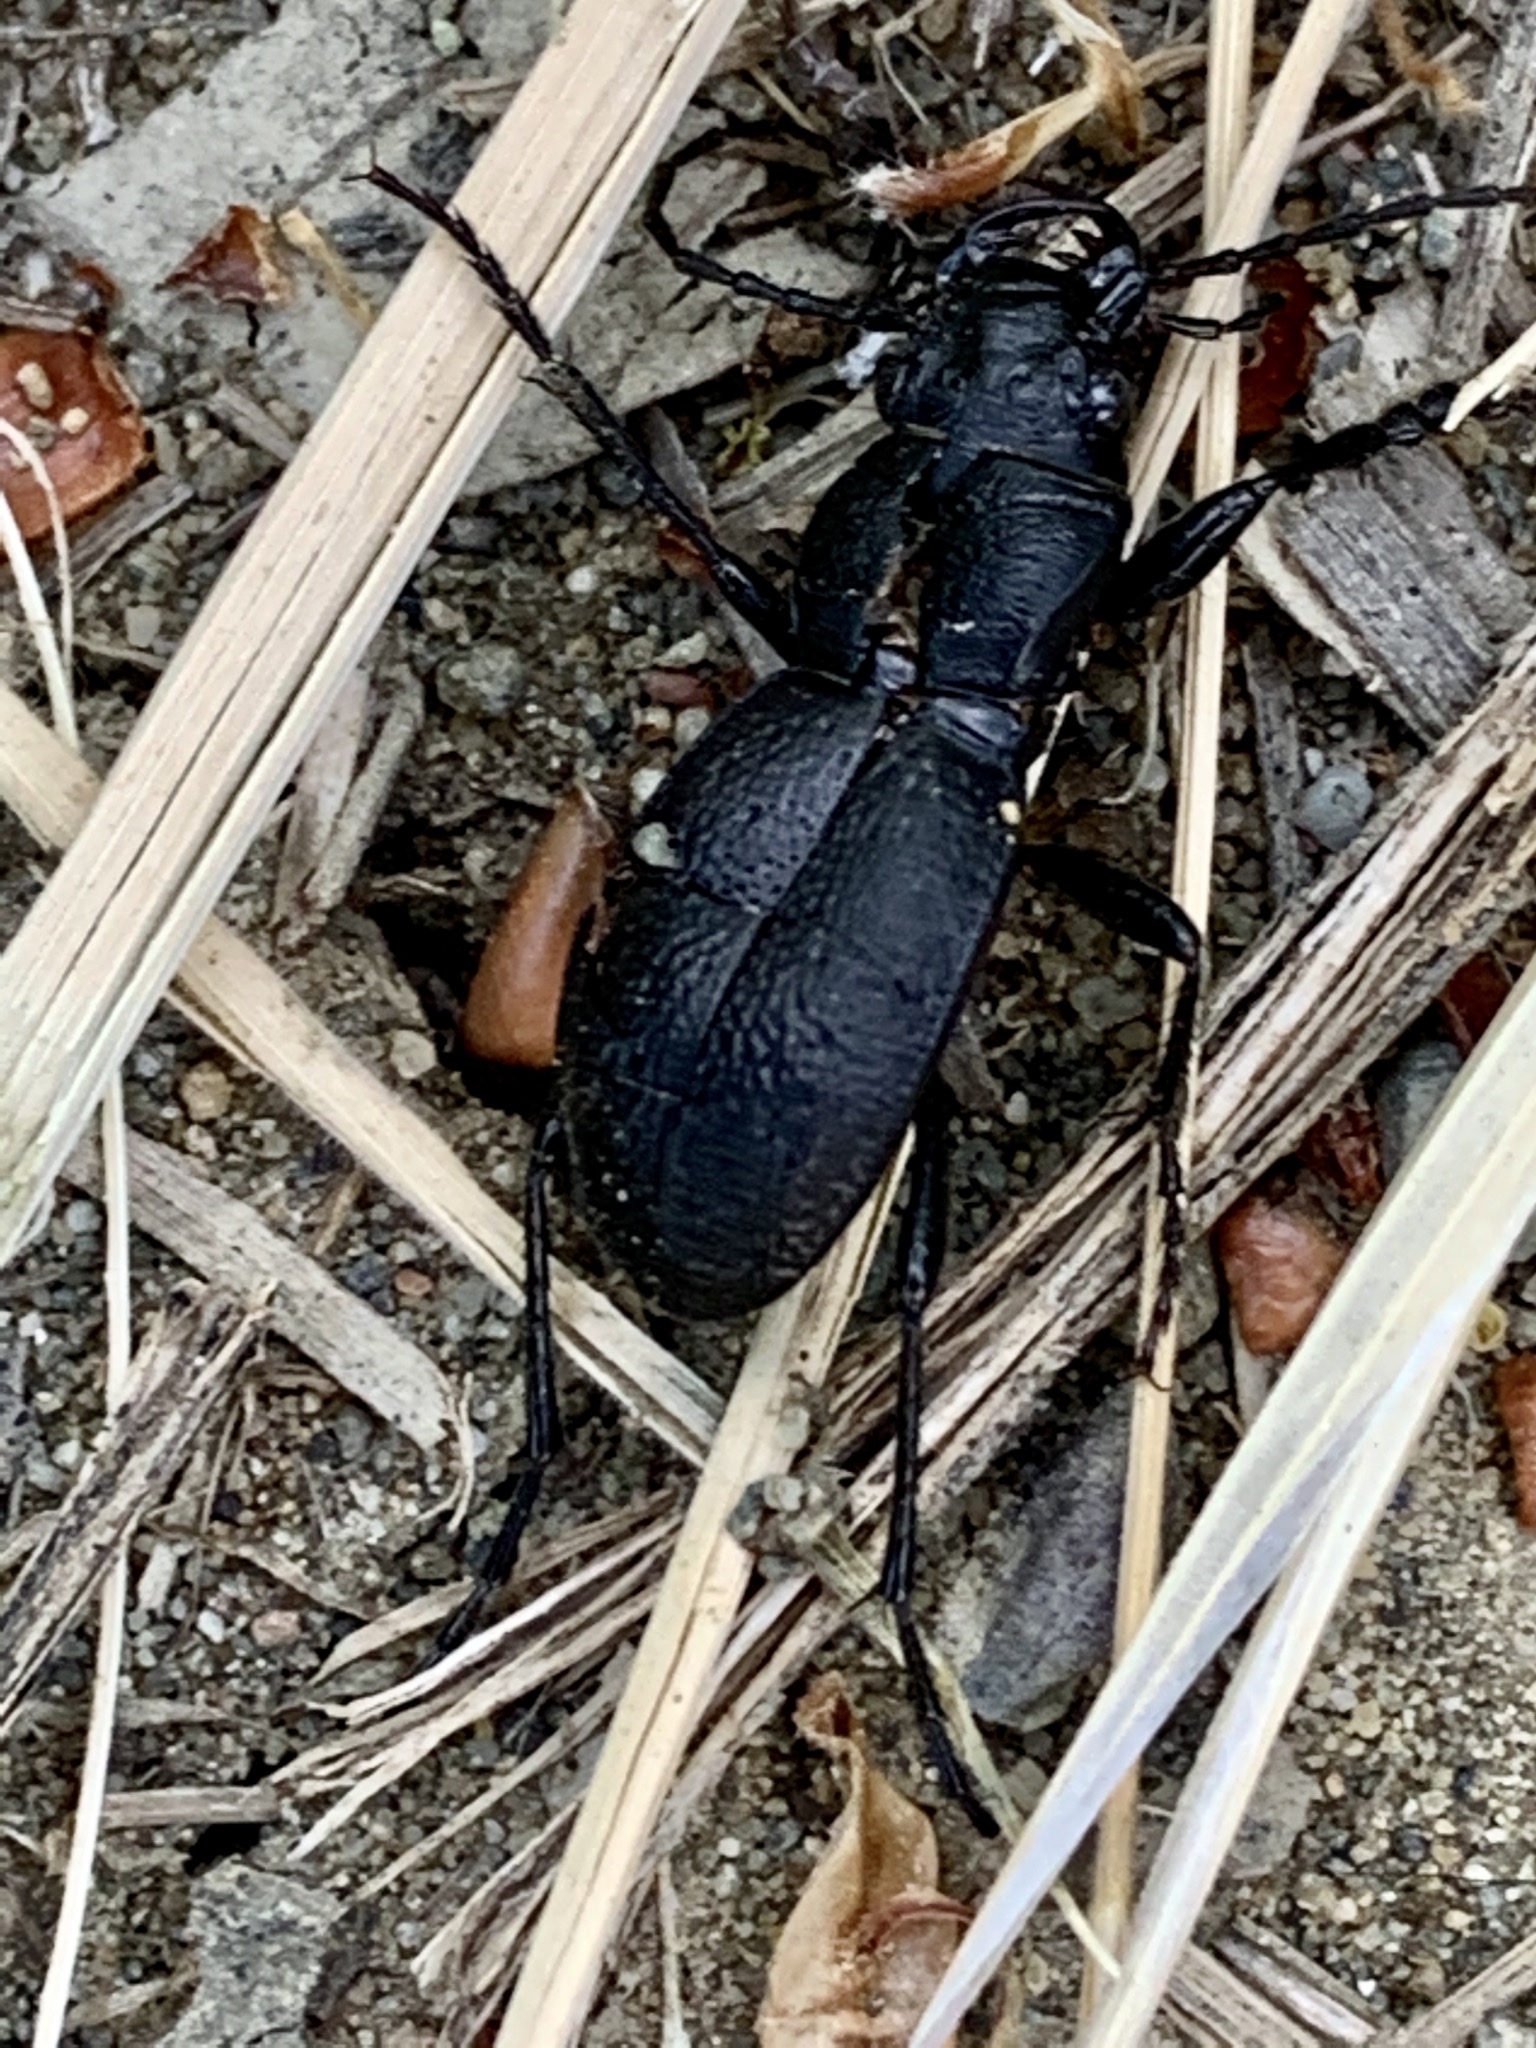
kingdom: Animalia
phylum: Arthropoda
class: Insecta
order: Coleoptera
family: Carabidae
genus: Omus
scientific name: Omus californicus
